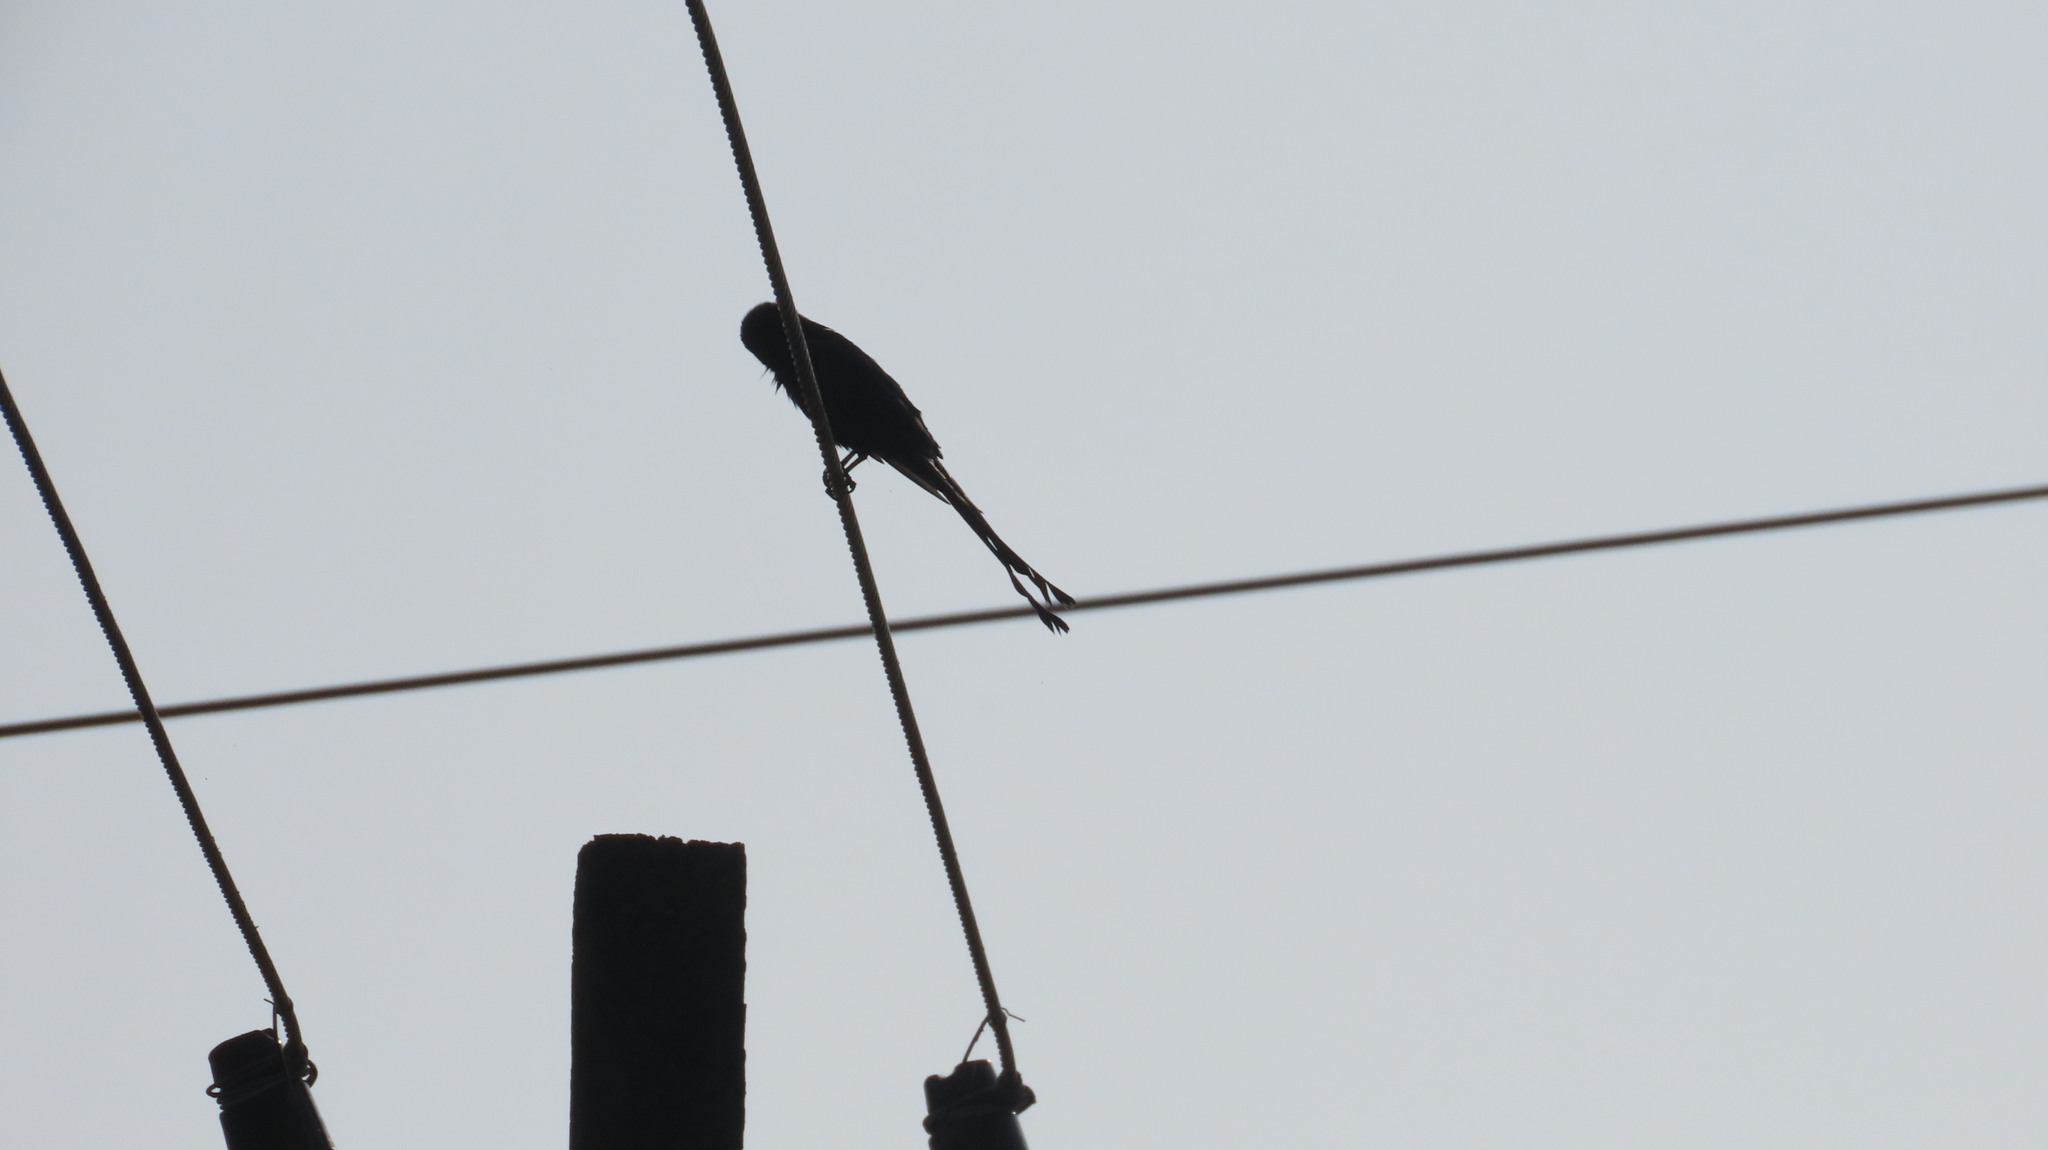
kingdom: Animalia
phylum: Chordata
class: Aves
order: Passeriformes
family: Dicruridae
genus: Dicrurus
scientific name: Dicrurus macrocercus
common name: Black drongo
